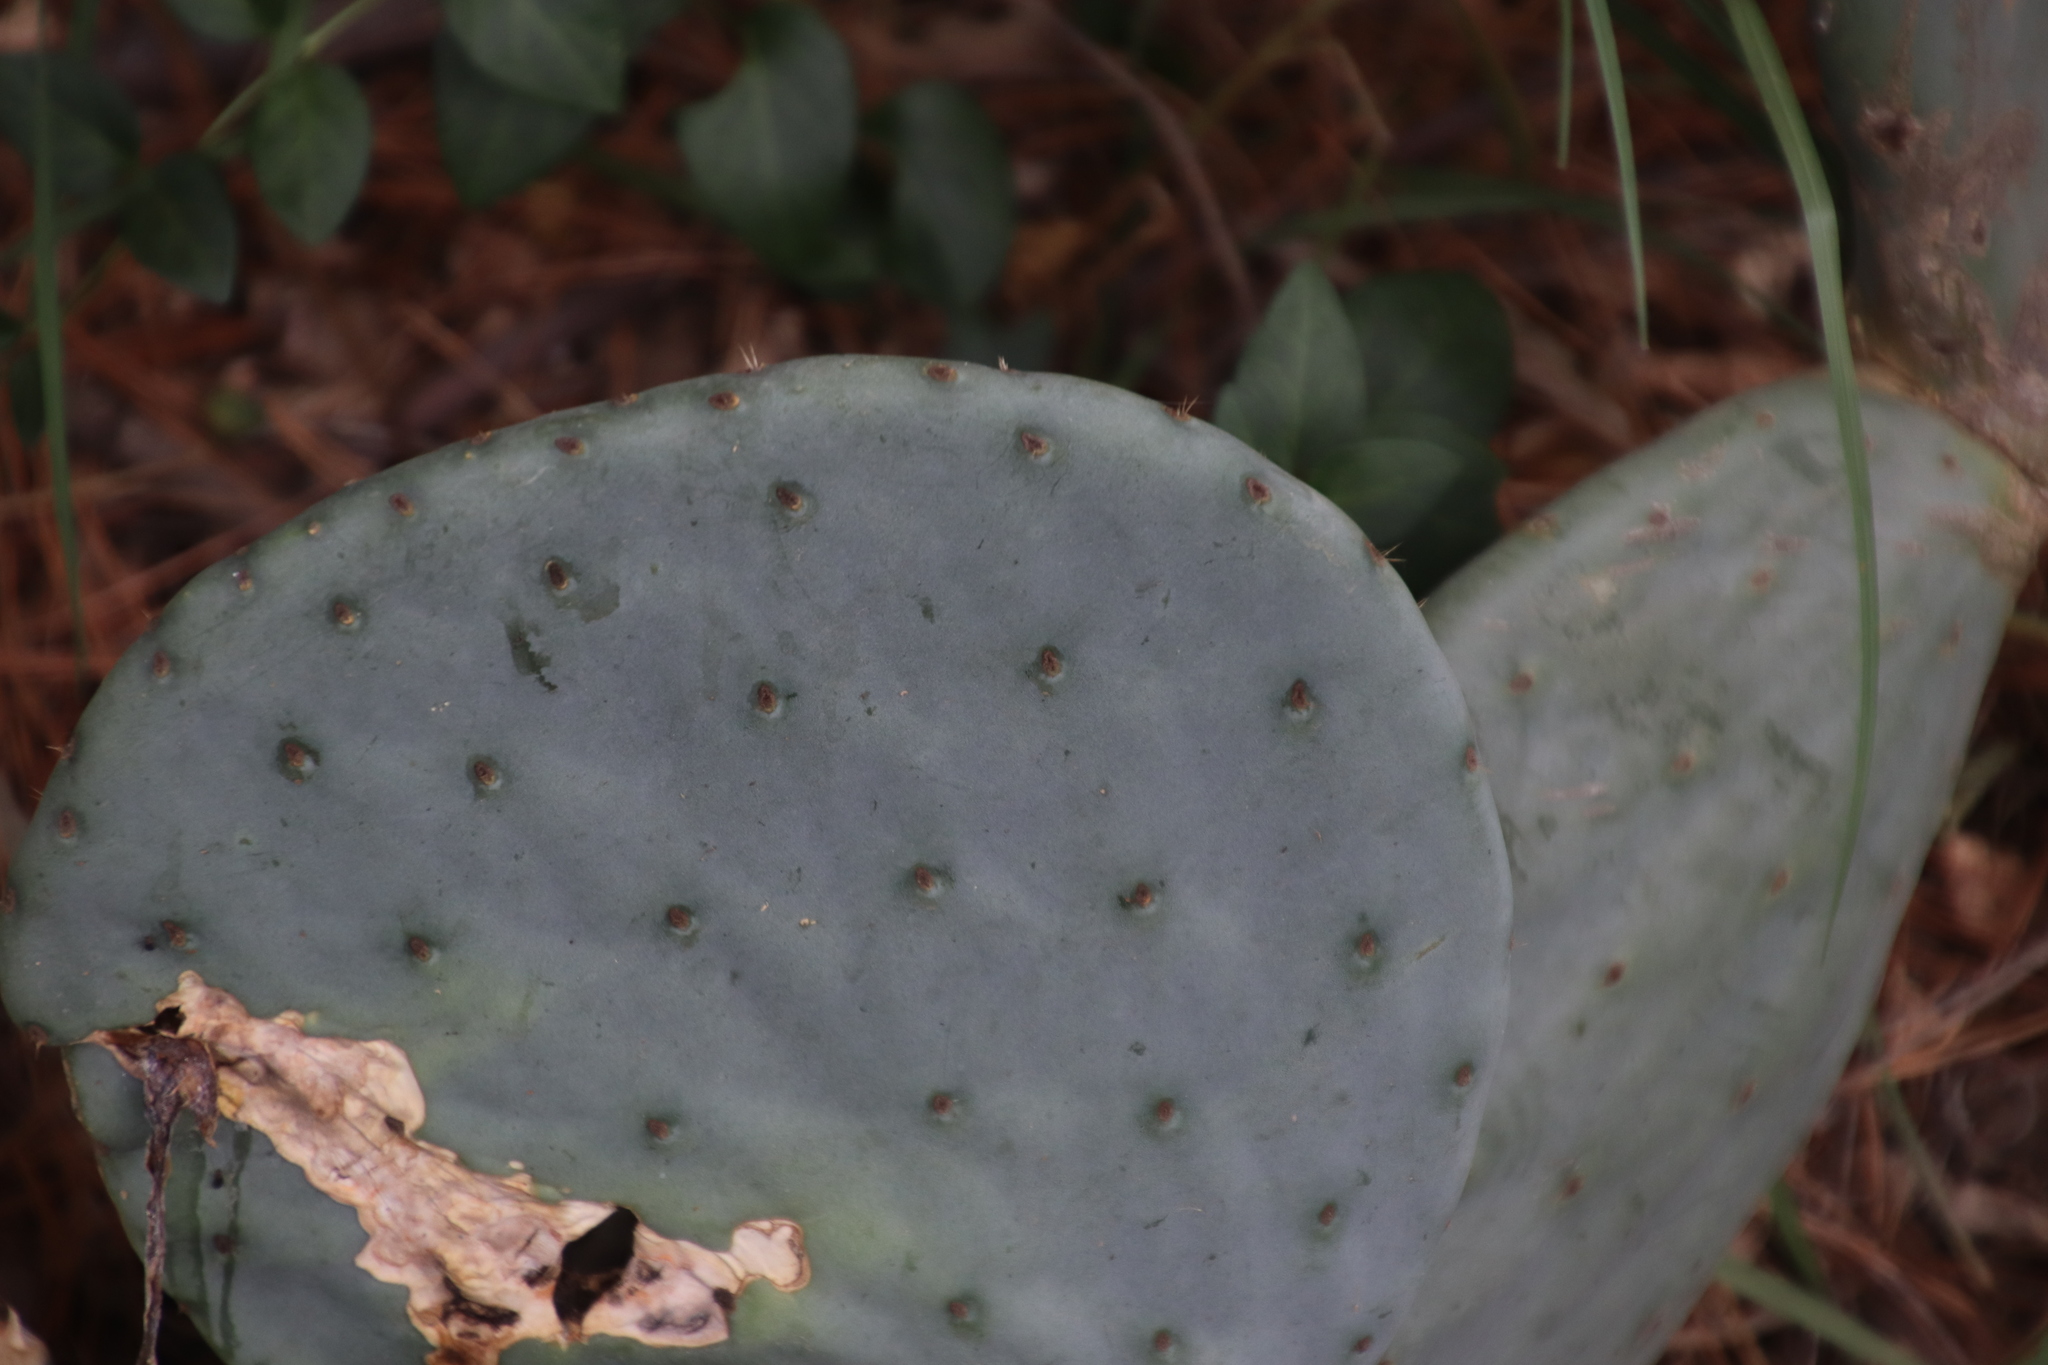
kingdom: Plantae
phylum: Tracheophyta
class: Magnoliopsida
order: Caryophyllales
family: Cactaceae
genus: Opuntia
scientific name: Opuntia robusta
